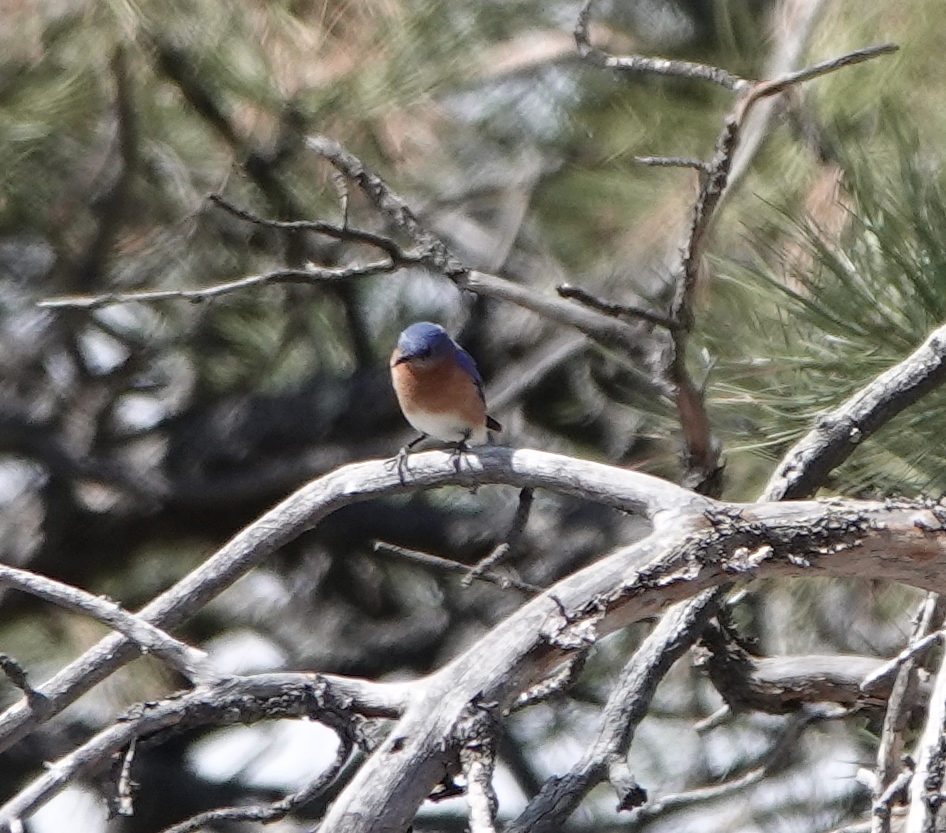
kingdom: Animalia
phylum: Chordata
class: Aves
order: Passeriformes
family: Turdidae
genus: Sialia
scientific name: Sialia sialis
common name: Eastern bluebird
